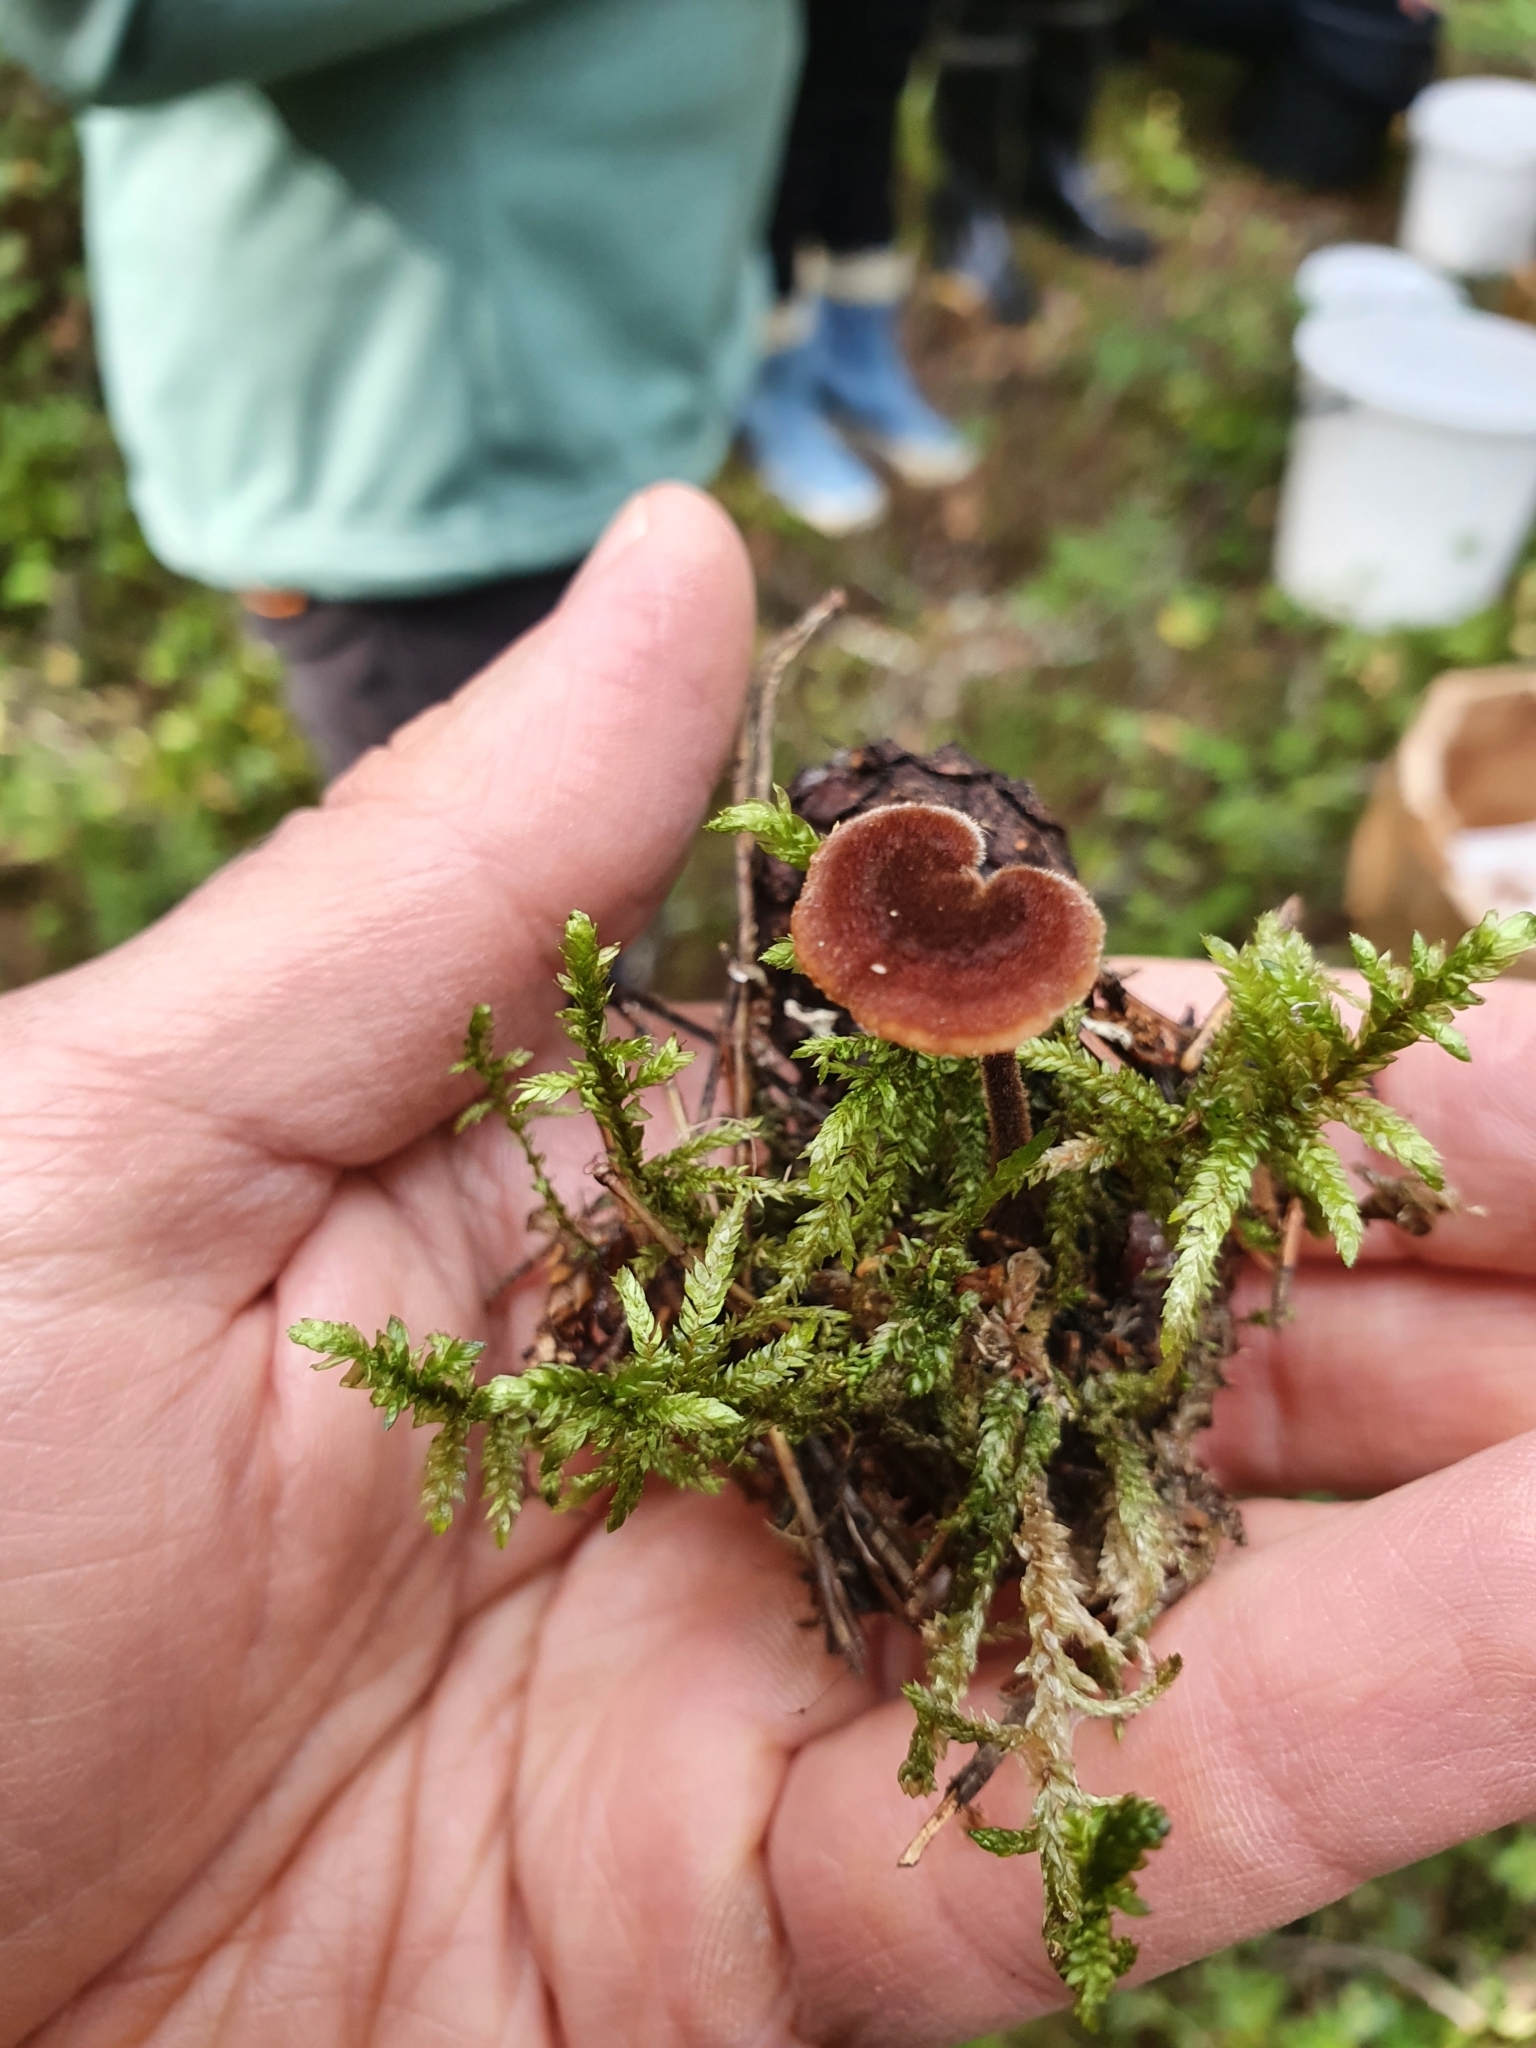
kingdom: Fungi
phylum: Basidiomycota
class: Agaricomycetes
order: Russulales
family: Auriscalpiaceae
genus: Auriscalpium
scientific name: Auriscalpium vulgare
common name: Earpick fungus
